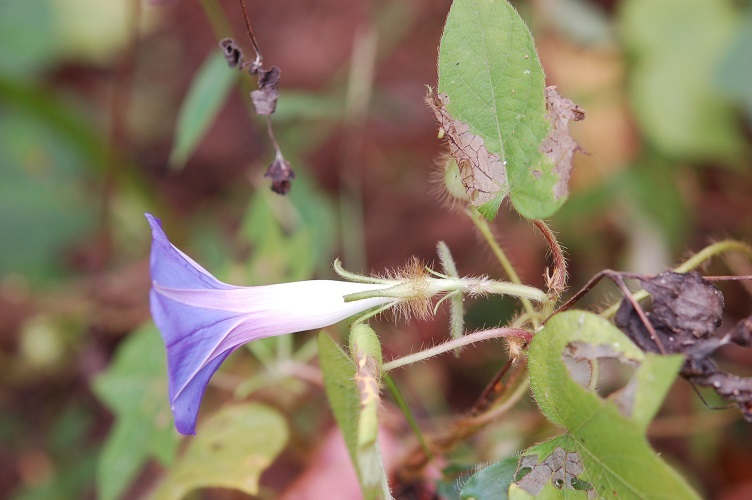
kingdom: Plantae
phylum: Tracheophyta
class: Magnoliopsida
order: Solanales
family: Convolvulaceae
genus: Ipomoea
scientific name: Ipomoea nil
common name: Japanese morning-glory
